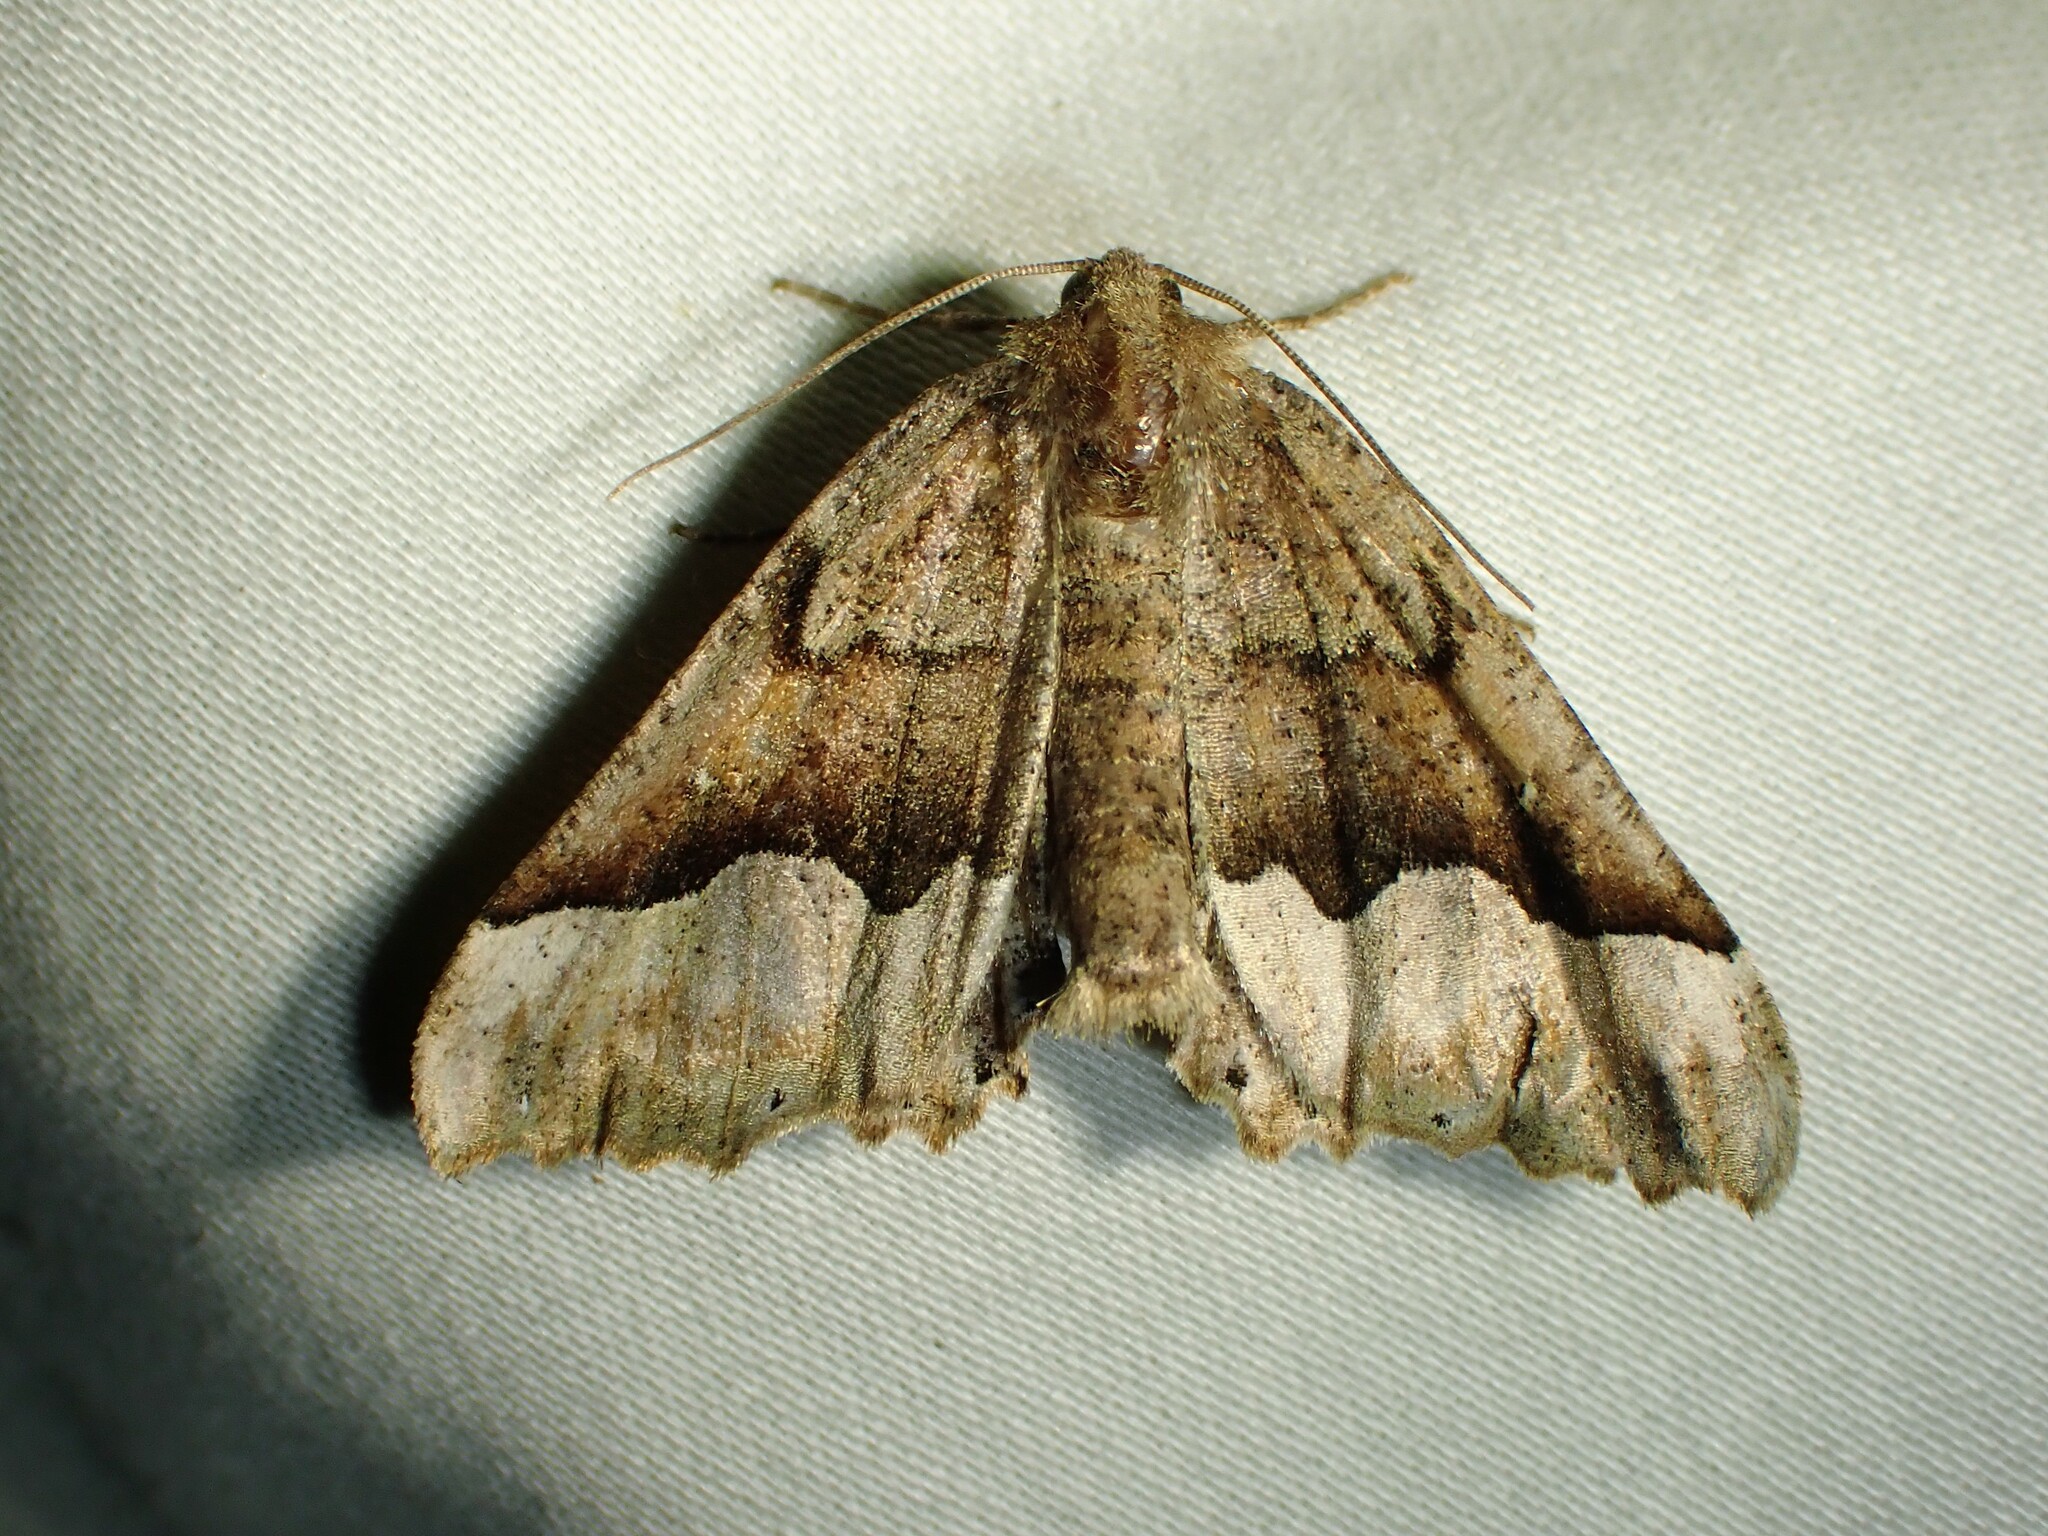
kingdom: Animalia
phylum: Arthropoda
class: Insecta
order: Lepidoptera
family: Geometridae
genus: Pero
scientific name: Pero morrisonaria
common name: Morrison's pero
